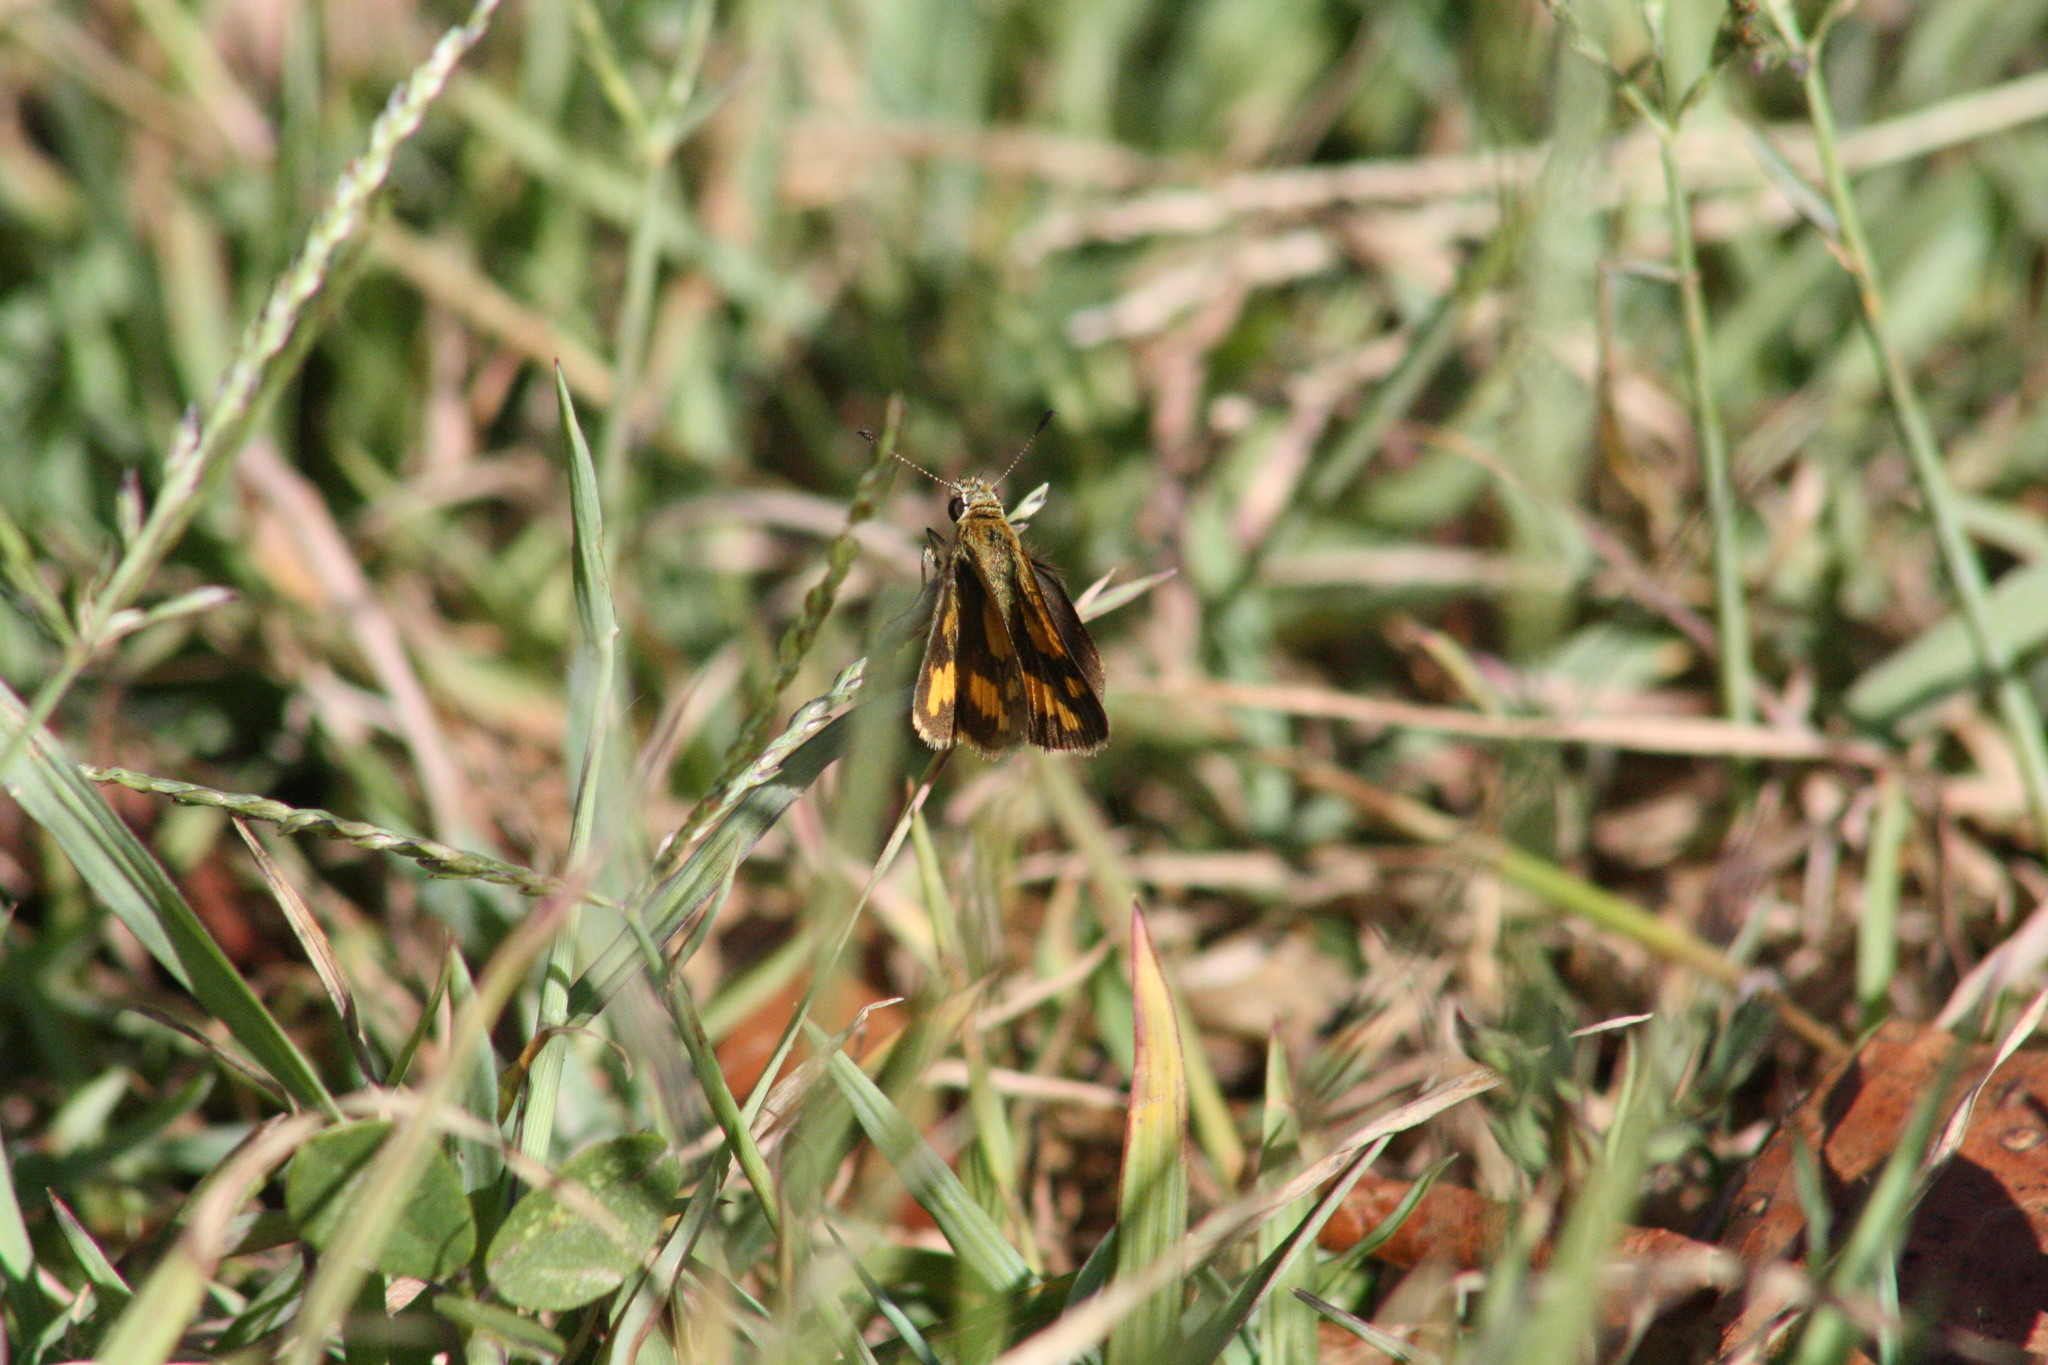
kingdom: Animalia
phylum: Arthropoda
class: Insecta
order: Lepidoptera
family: Hesperiidae
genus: Ocybadistes
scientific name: Ocybadistes flavovittata
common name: Narrow-brand grass-dart
